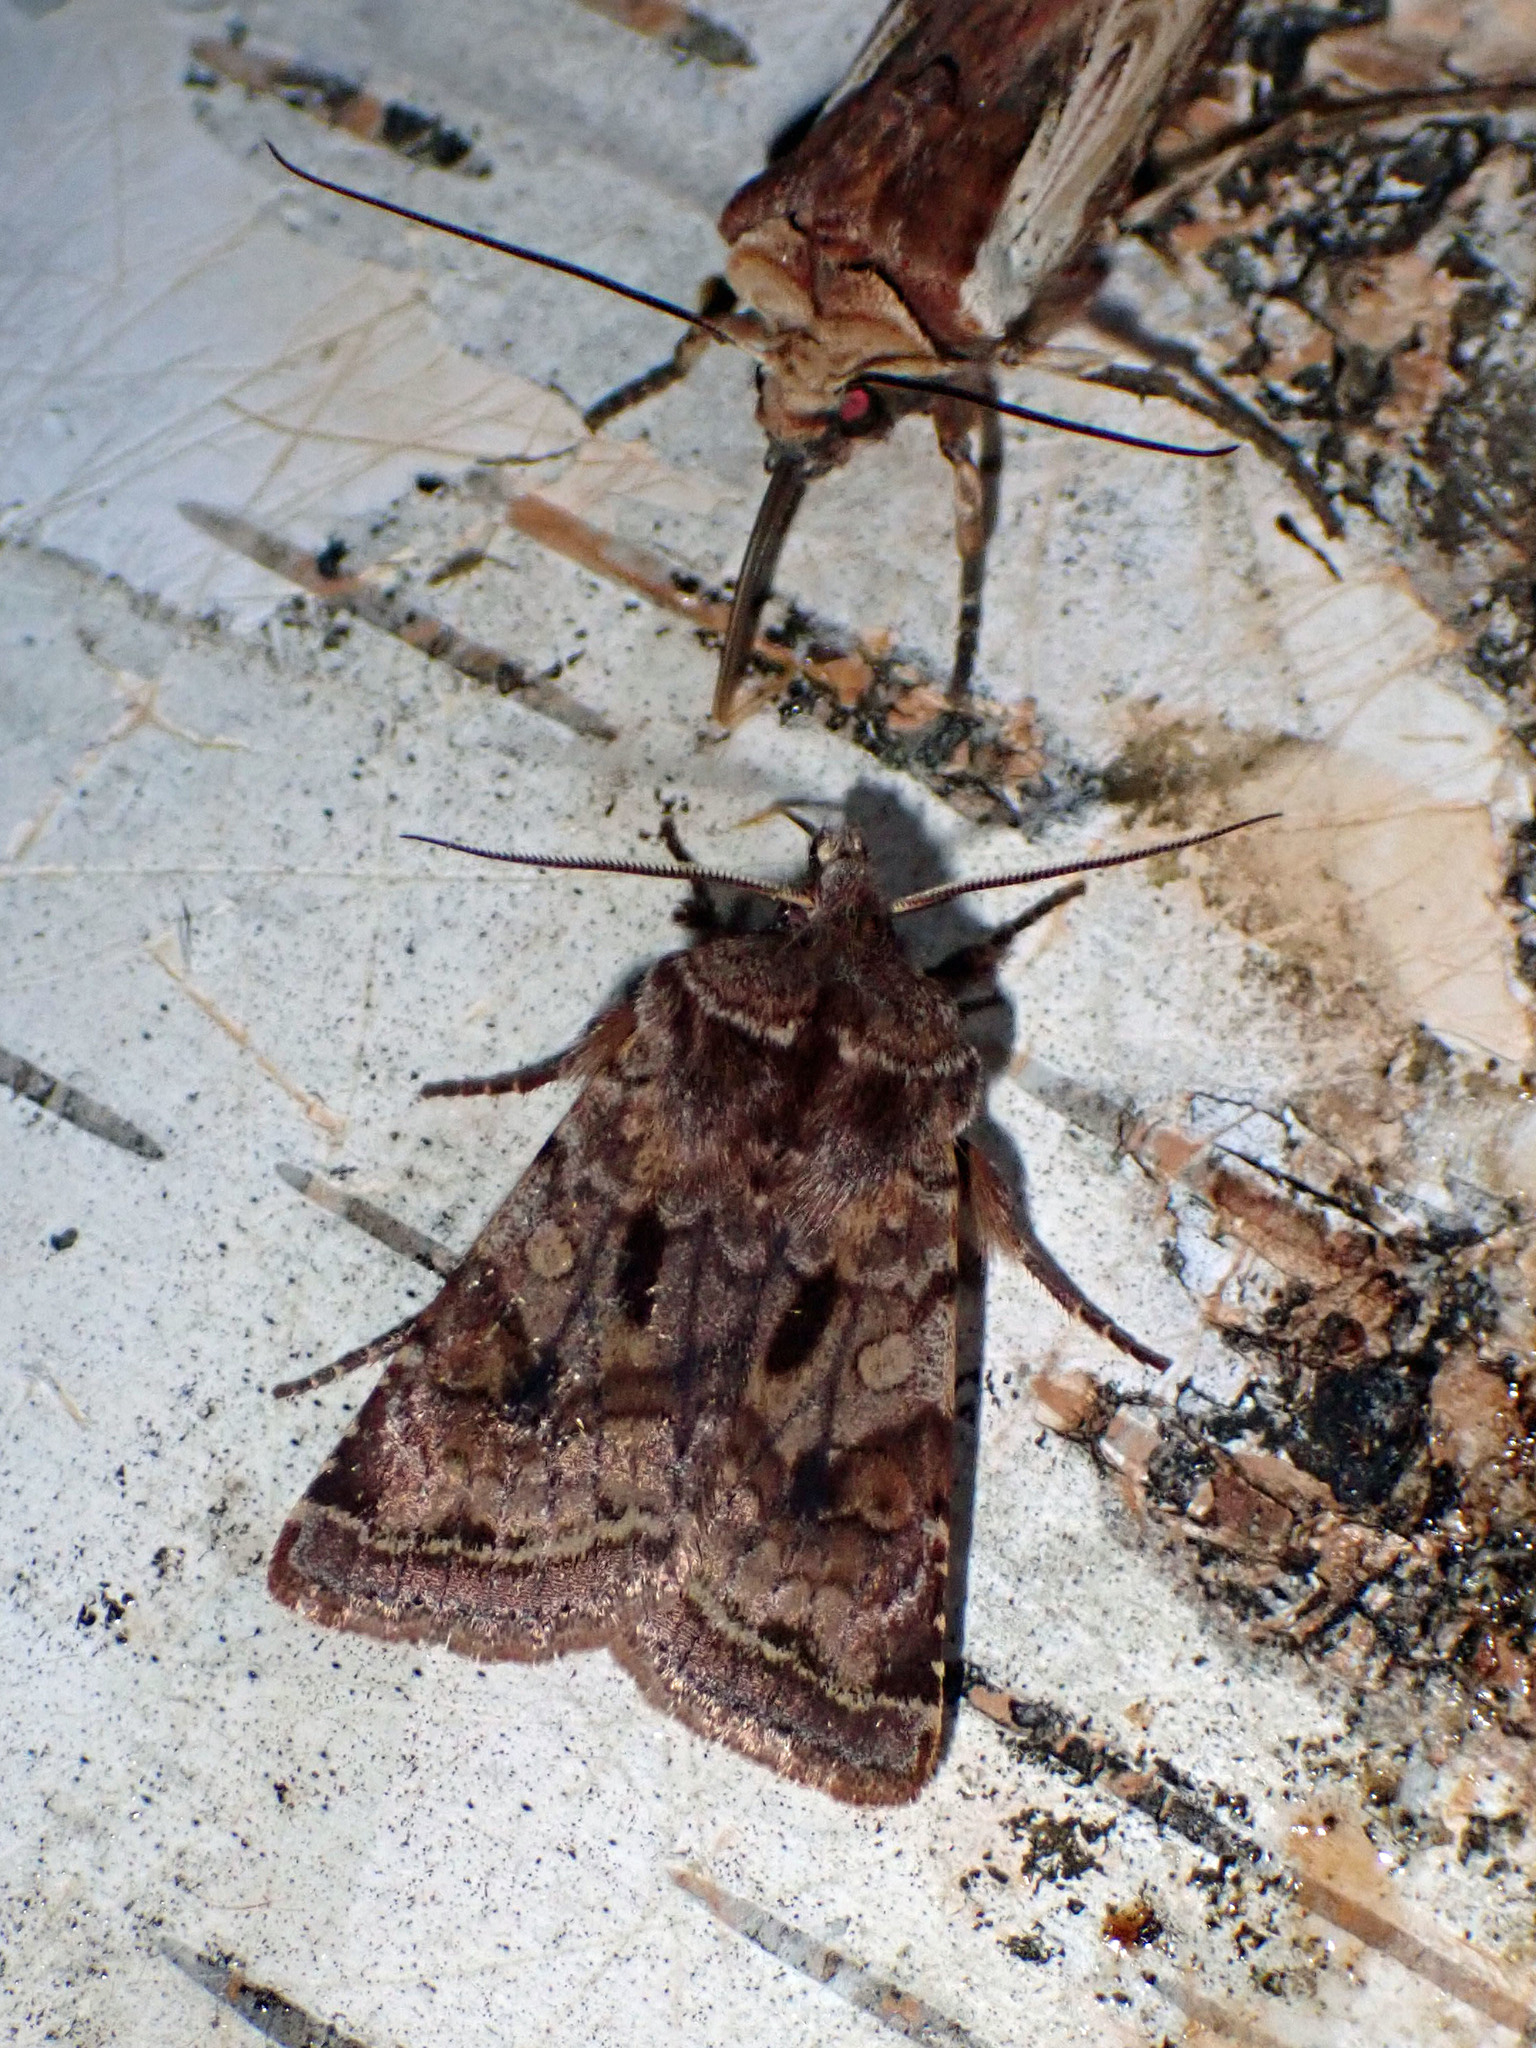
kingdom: Animalia
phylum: Arthropoda
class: Insecta
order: Lepidoptera
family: Noctuidae
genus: Cerastis
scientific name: Cerastis salicarum
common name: Willow dart
